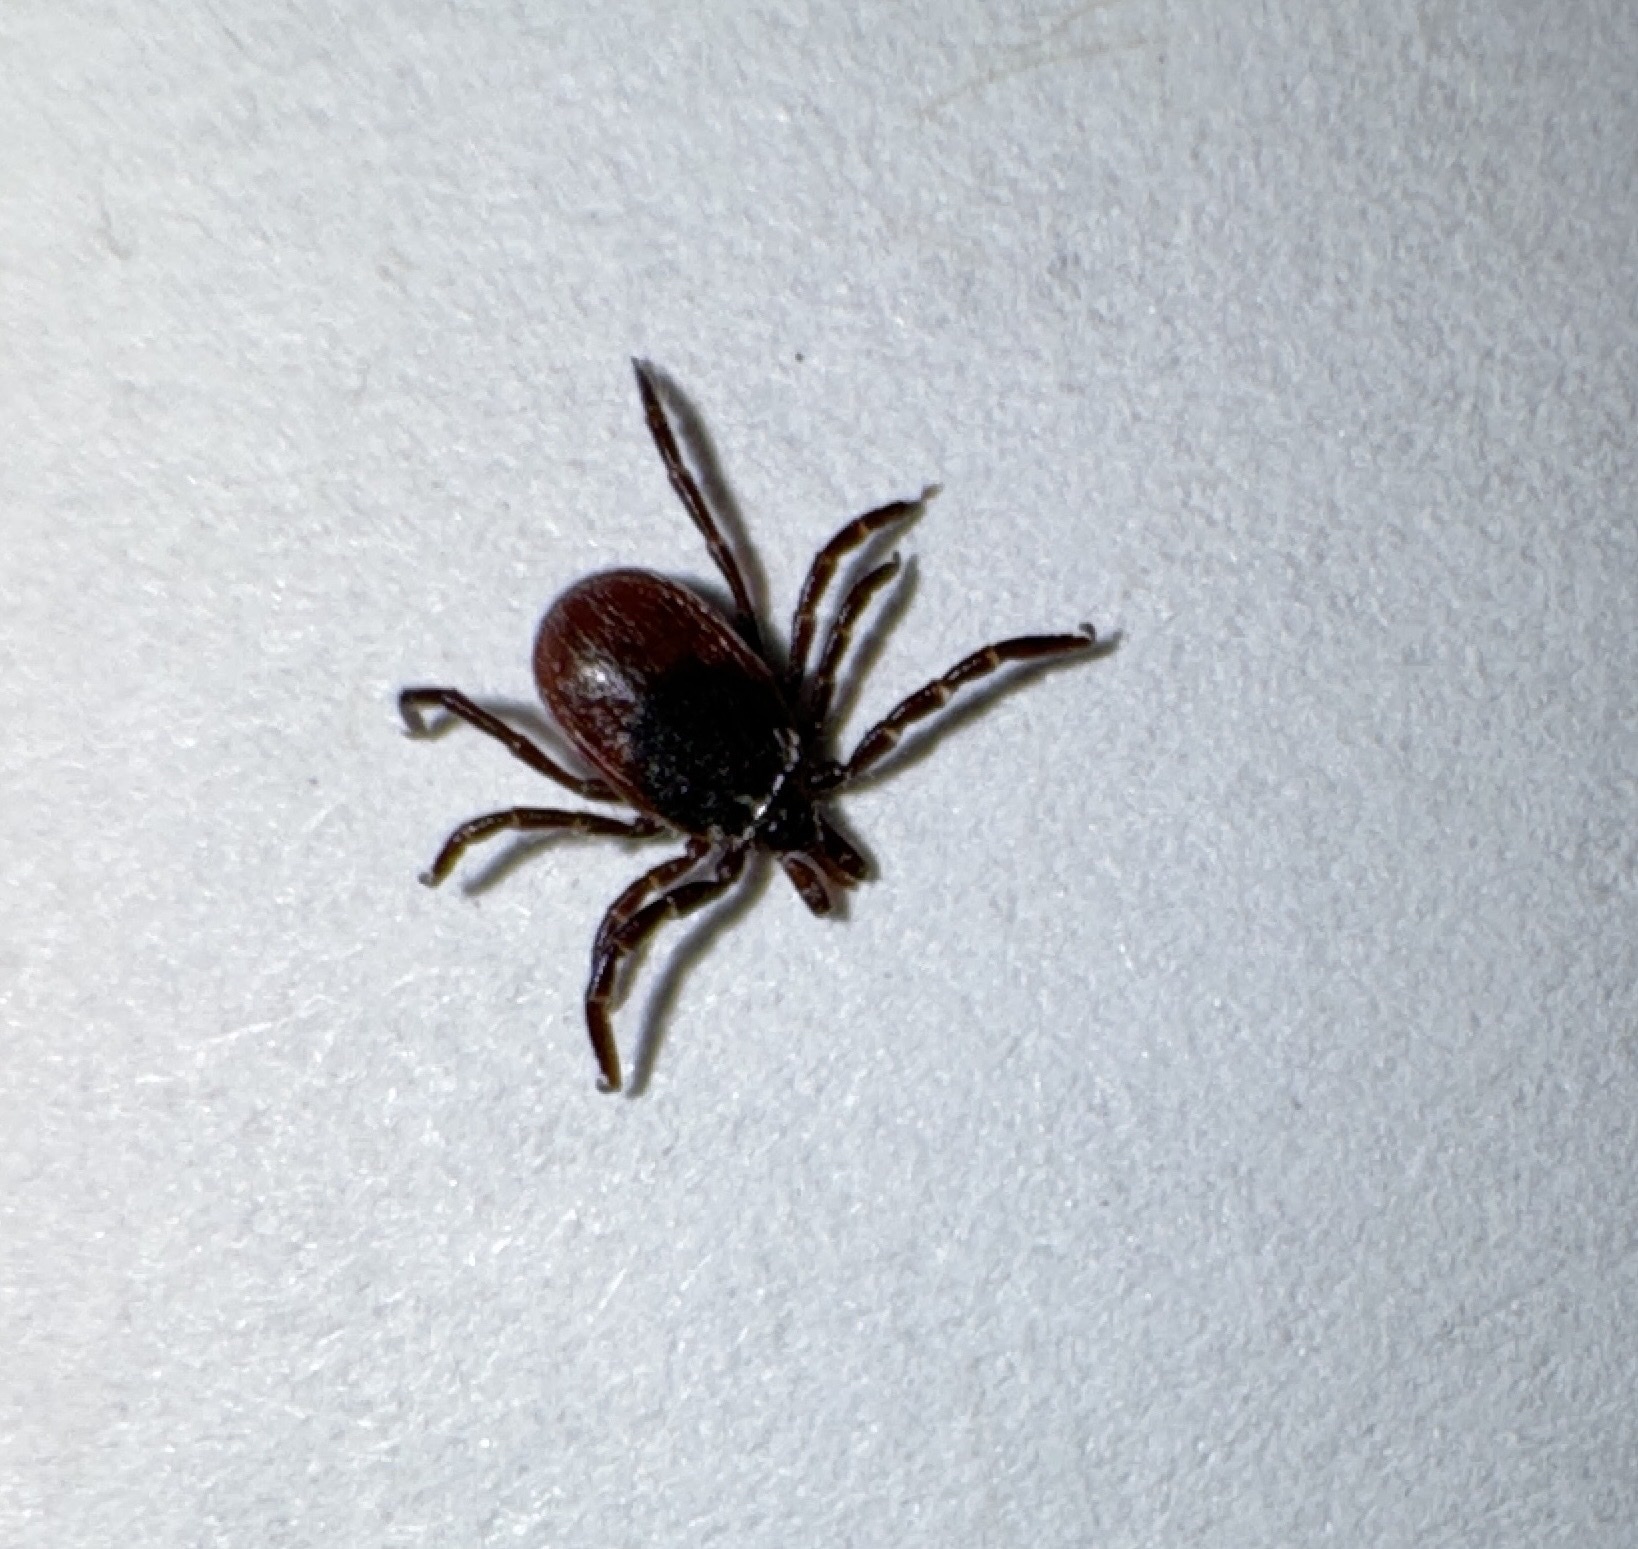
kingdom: Animalia
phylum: Arthropoda
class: Arachnida
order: Ixodida
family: Ixodidae
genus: Ixodes
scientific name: Ixodes pacificus
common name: California black-legged tick
